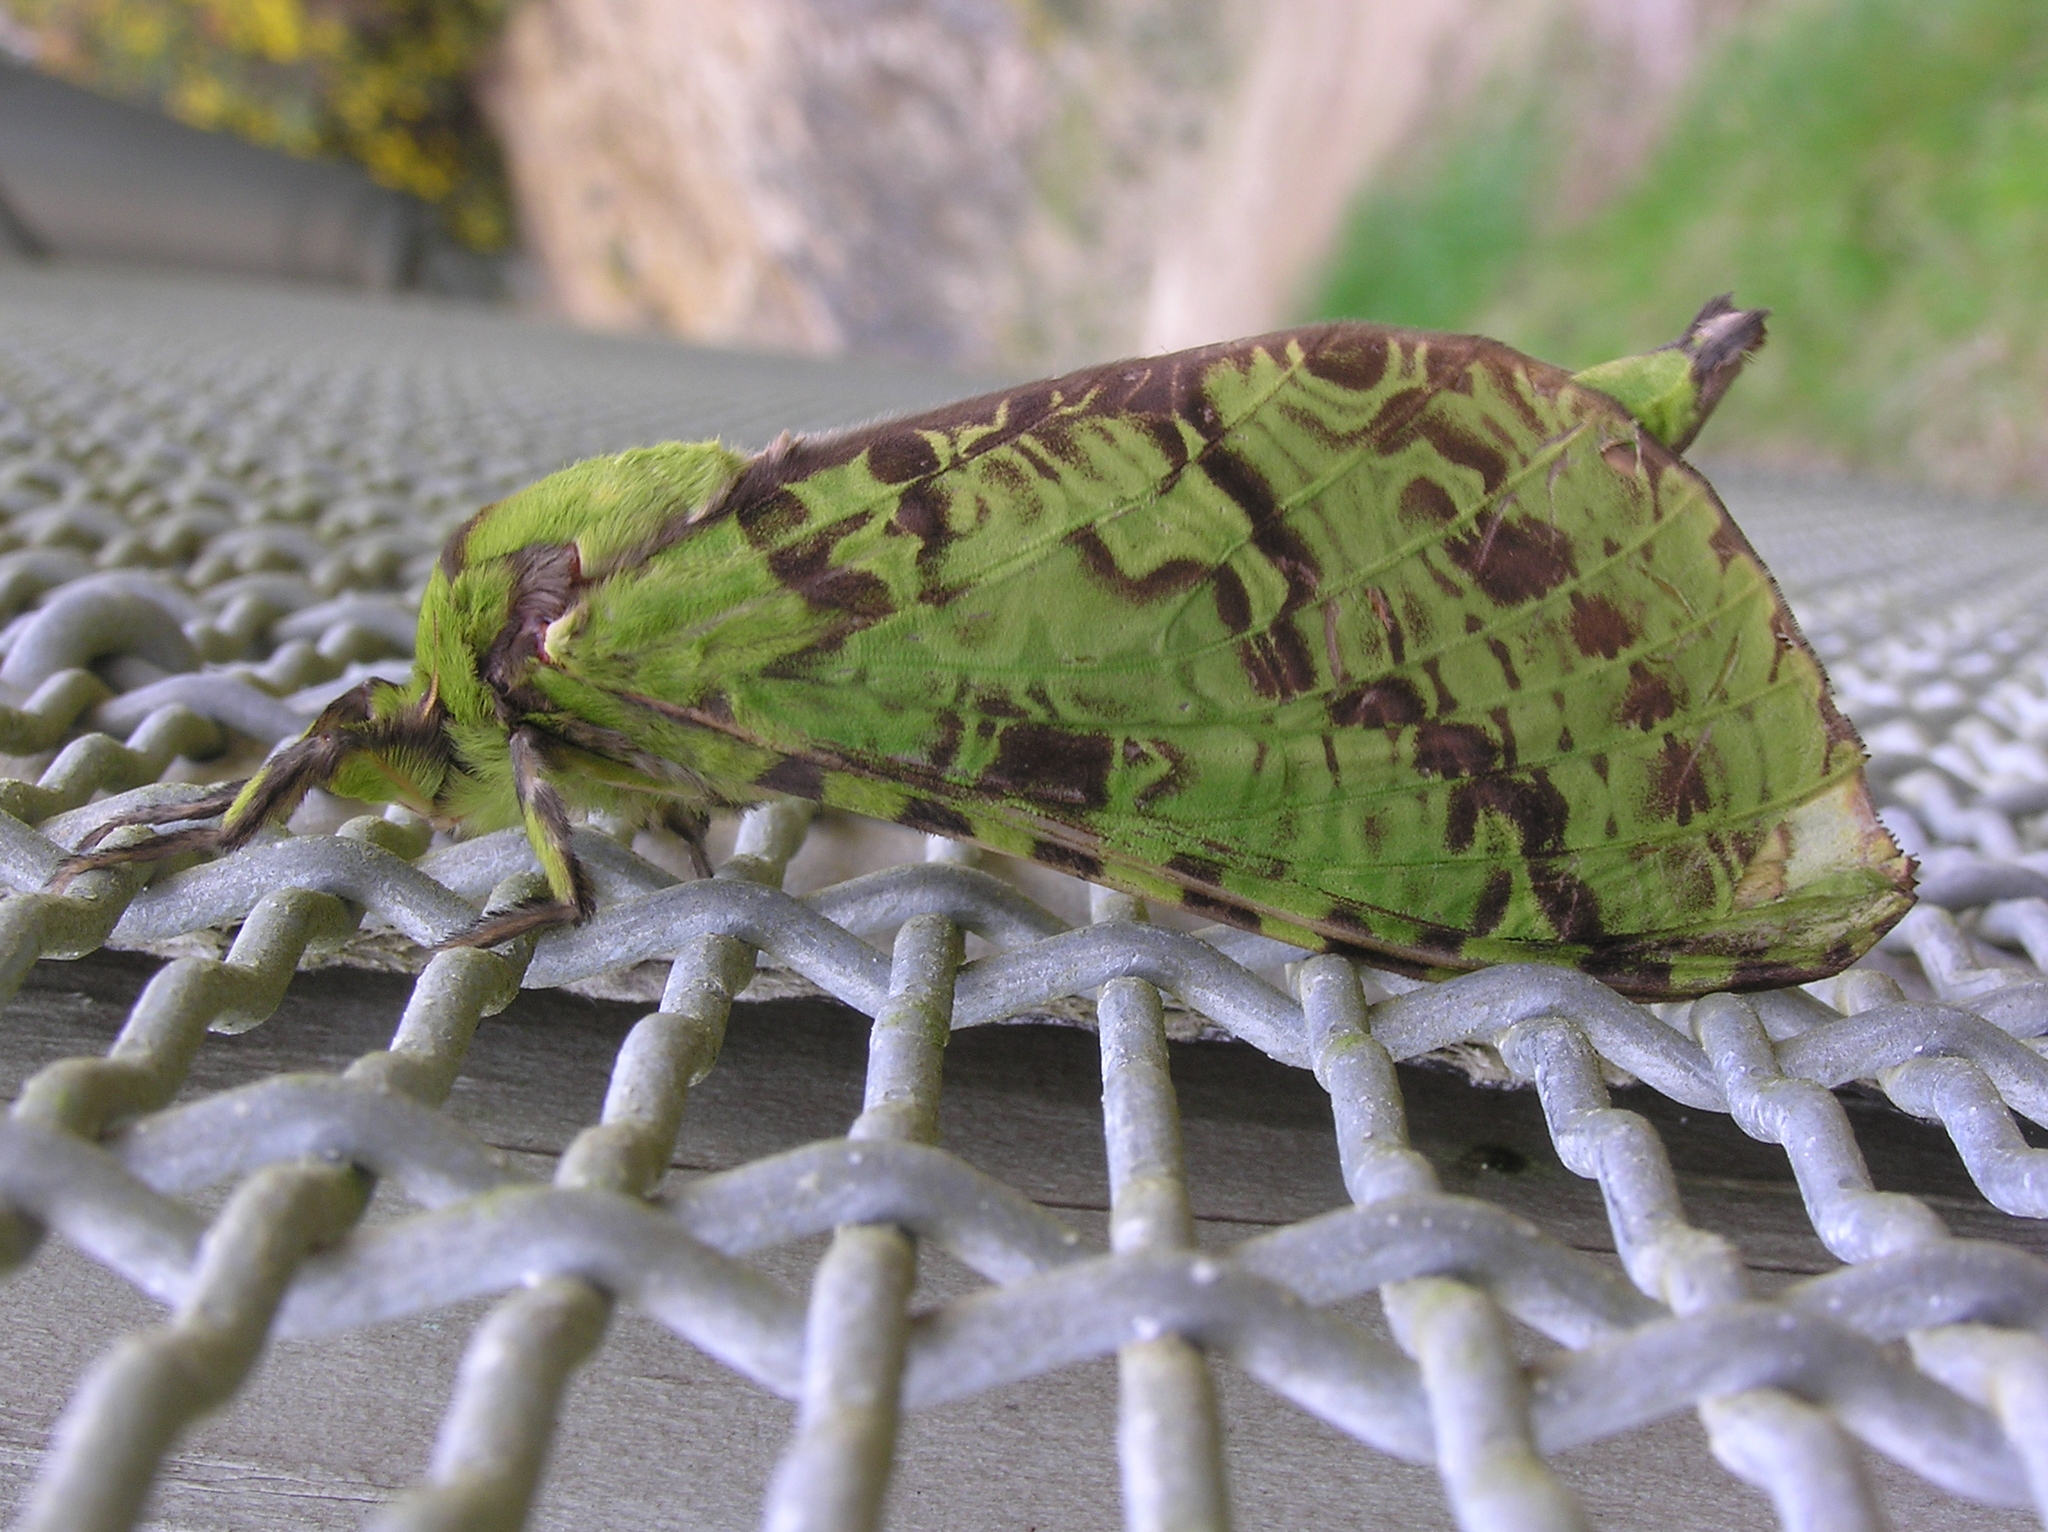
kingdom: Animalia
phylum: Arthropoda
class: Insecta
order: Lepidoptera
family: Hepialidae
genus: Aenetus
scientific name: Aenetus virescens
